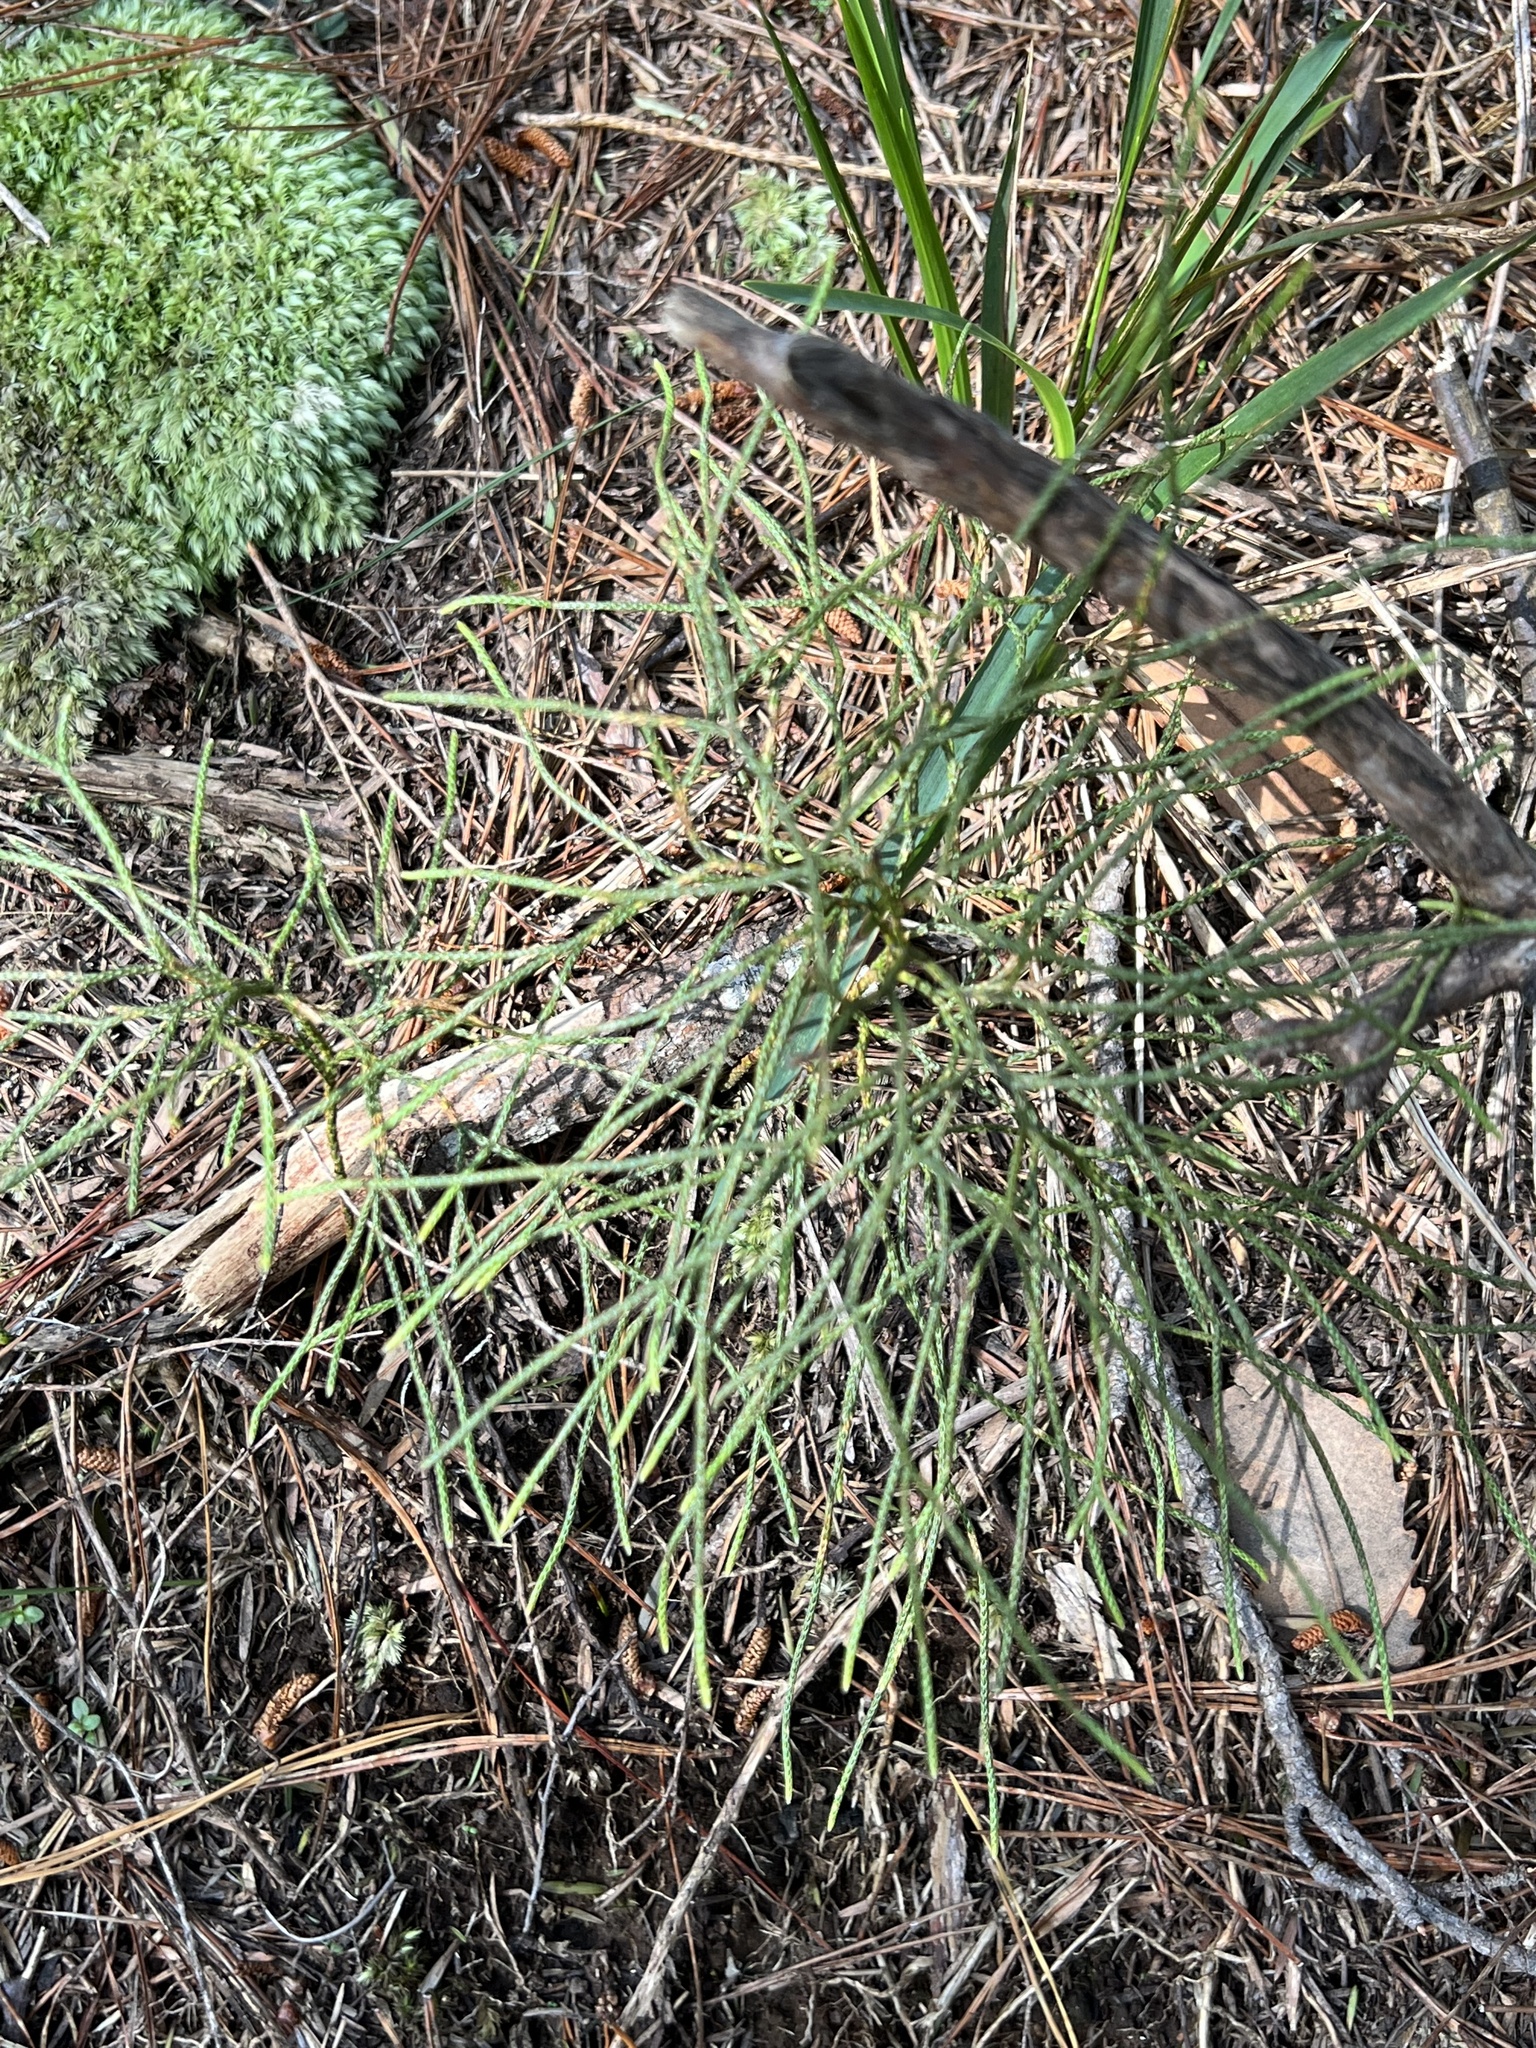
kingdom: Plantae
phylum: Tracheophyta
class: Lycopodiopsida
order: Lycopodiales
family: Lycopodiaceae
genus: Pseudolycopodium
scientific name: Pseudolycopodium densum
